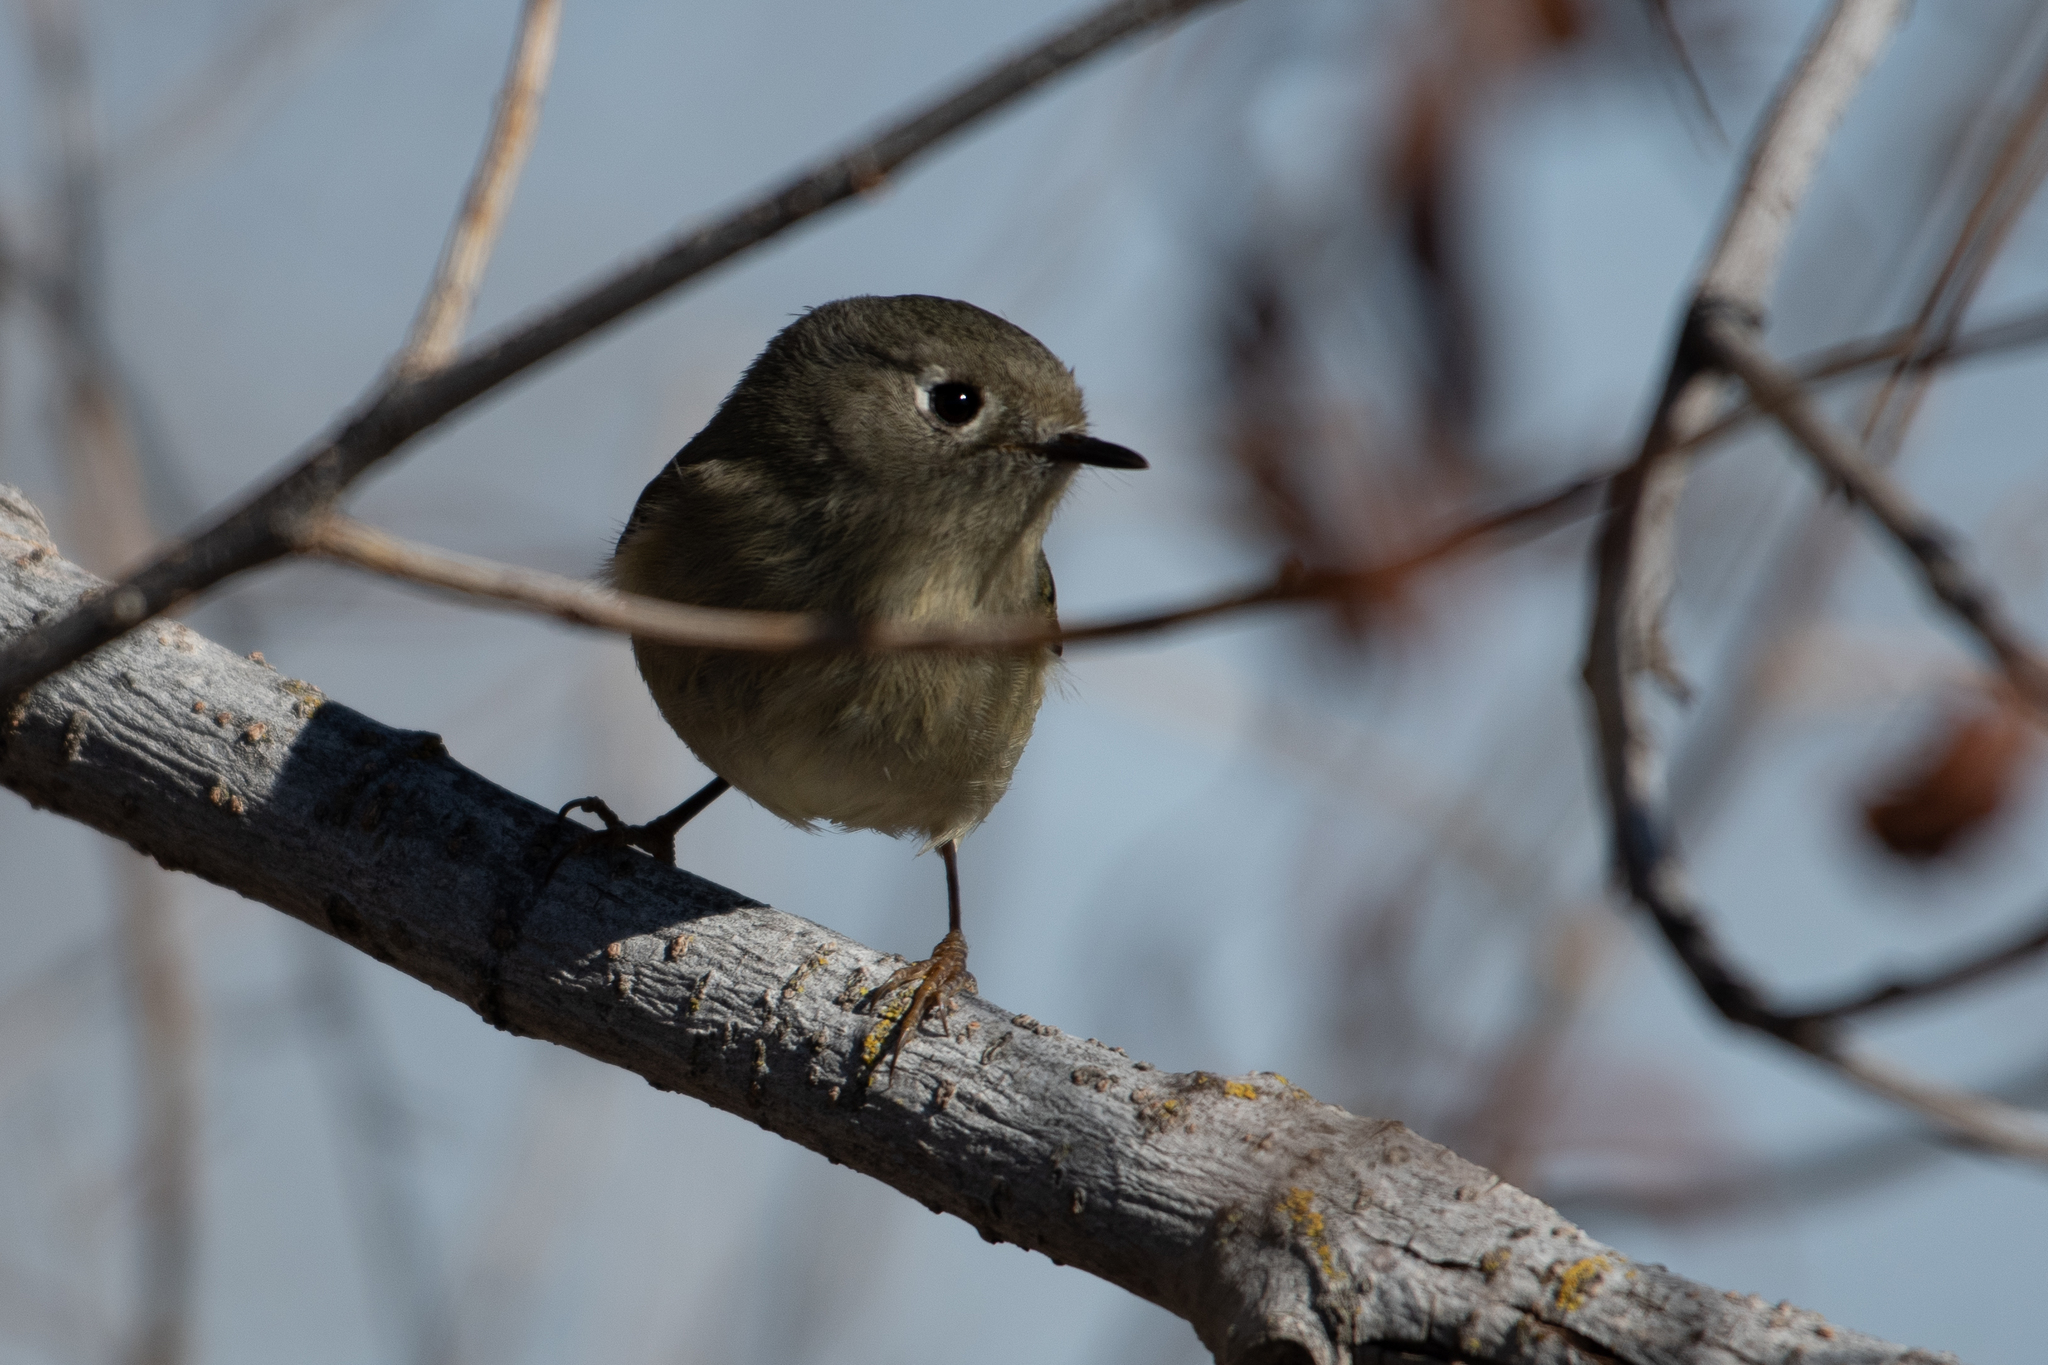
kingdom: Animalia
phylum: Chordata
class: Aves
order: Passeriformes
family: Regulidae
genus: Regulus
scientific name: Regulus calendula
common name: Ruby-crowned kinglet
